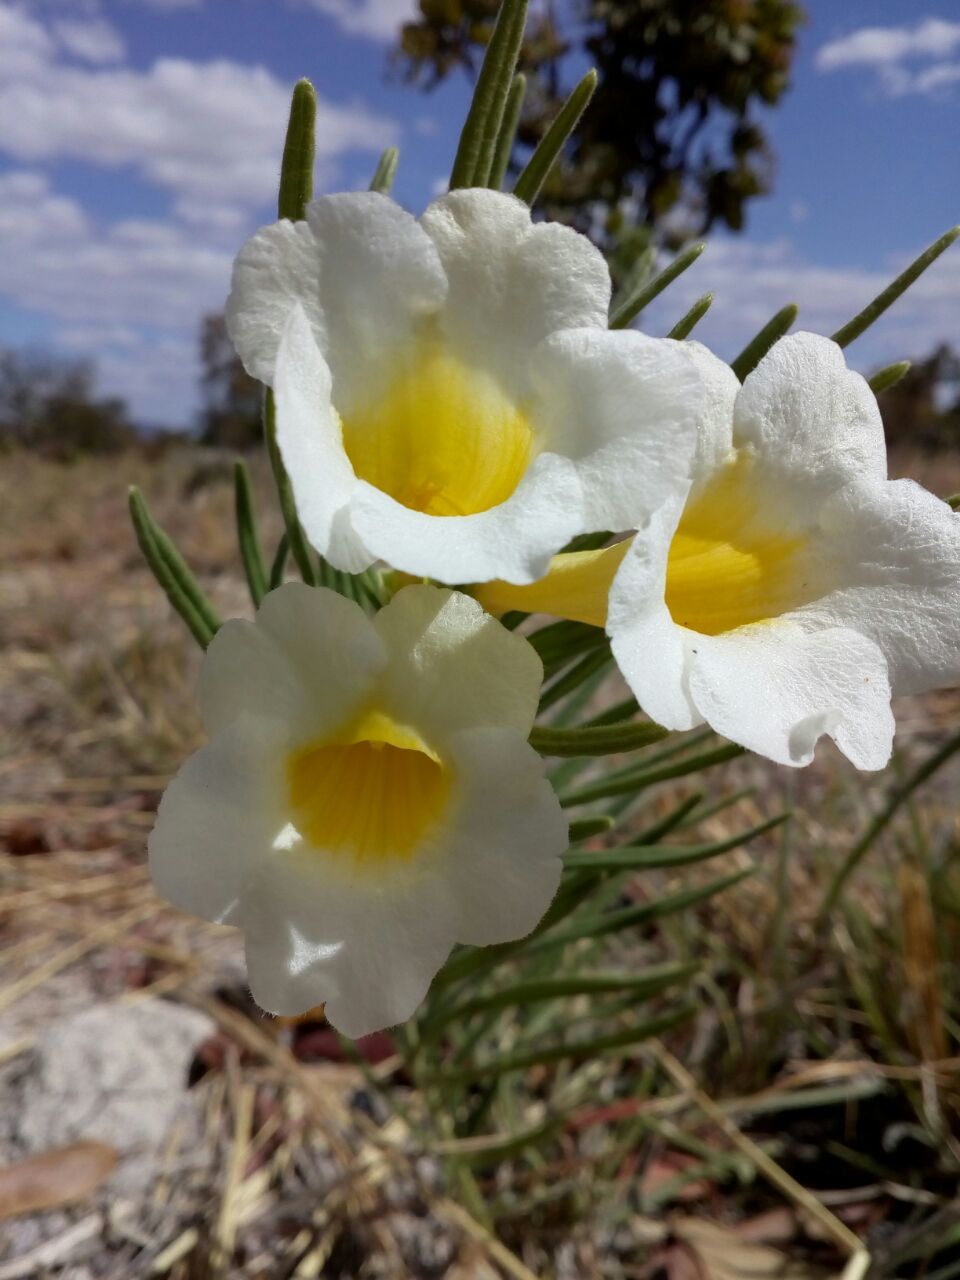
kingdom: Plantae
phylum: Tracheophyta
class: Magnoliopsida
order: Lamiales
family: Bignoniaceae
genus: Anemopaegma
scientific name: Anemopaegma arvense
